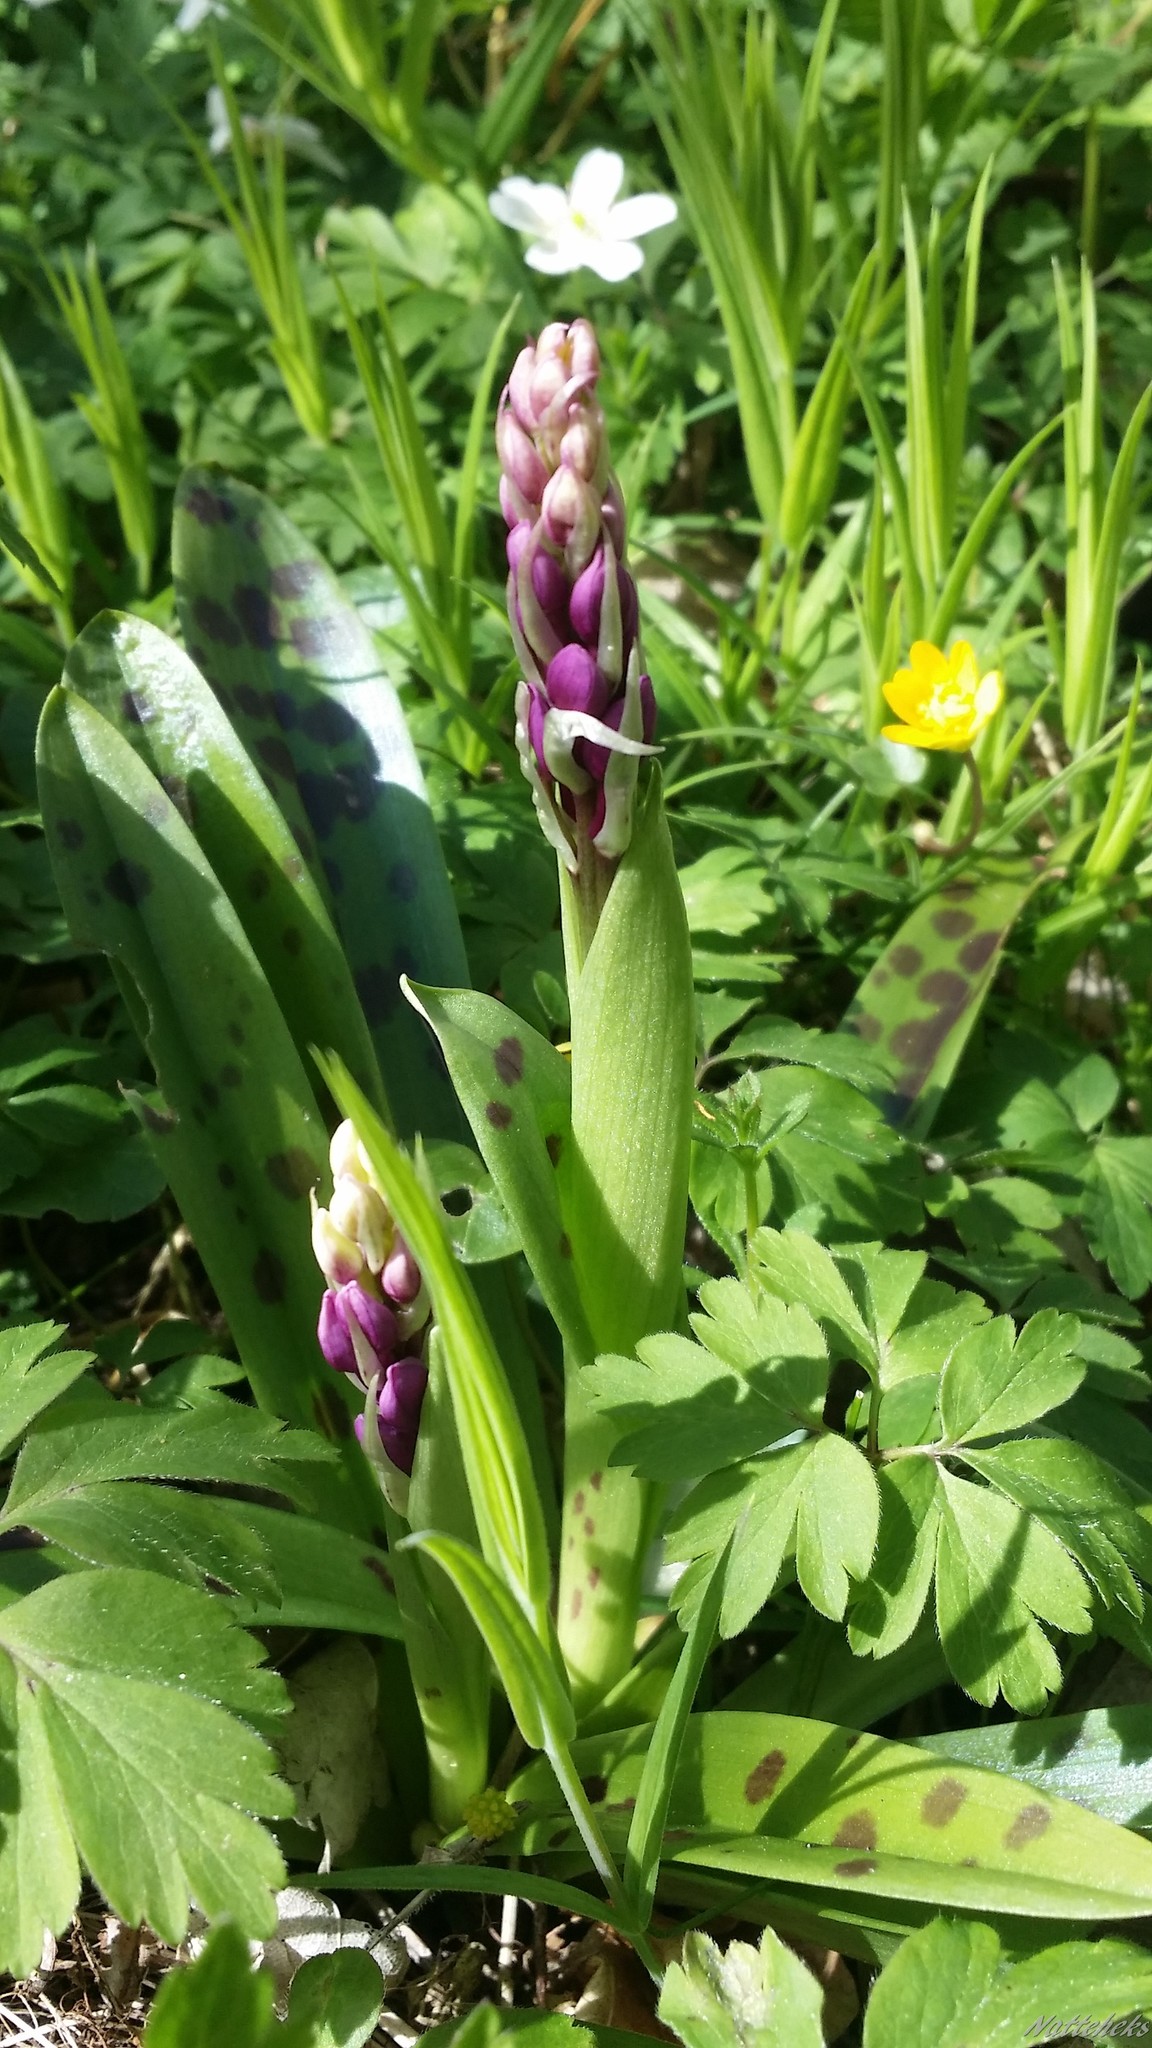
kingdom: Plantae
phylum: Tracheophyta
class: Liliopsida
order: Asparagales
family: Orchidaceae
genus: Orchis
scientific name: Orchis mascula
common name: Early-purple orchid
